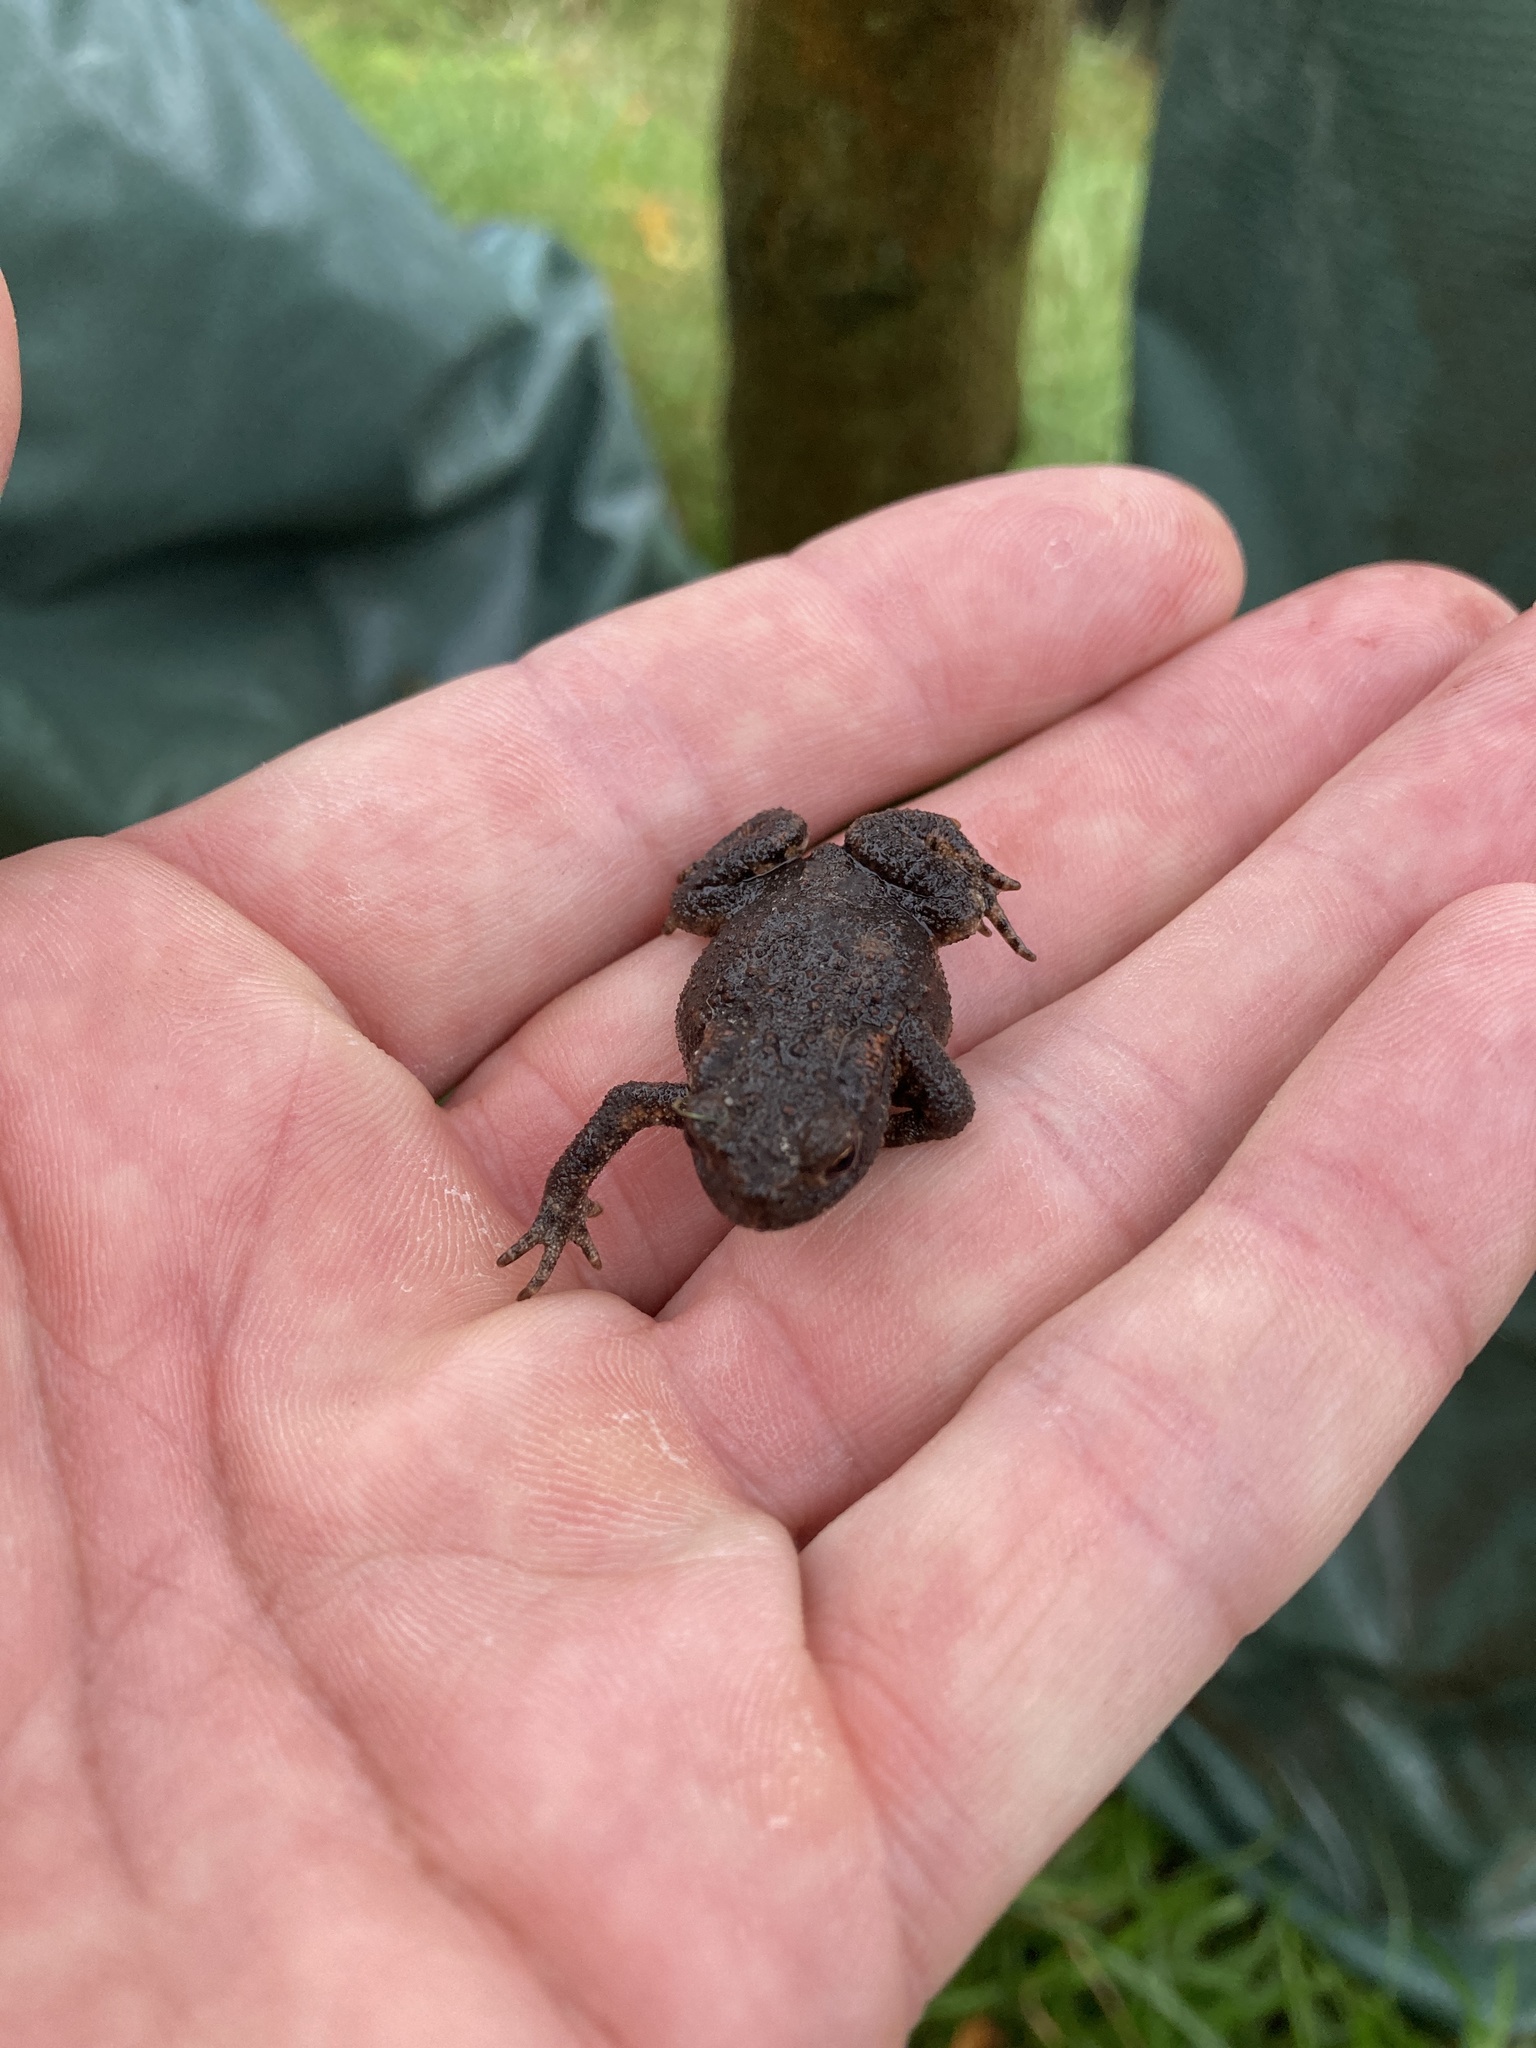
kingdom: Animalia
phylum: Chordata
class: Amphibia
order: Anura
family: Bufonidae
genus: Bufo
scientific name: Bufo bufo
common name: Common toad
